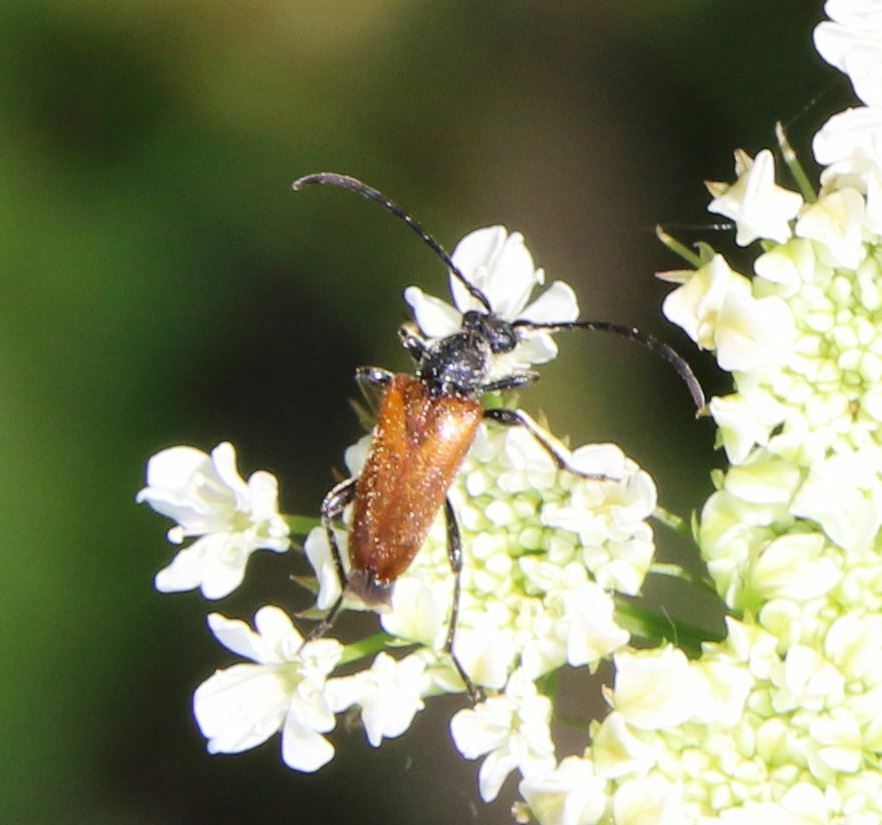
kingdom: Animalia
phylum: Arthropoda
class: Insecta
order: Coleoptera
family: Cerambycidae
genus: Pseudovadonia
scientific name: Pseudovadonia livida
